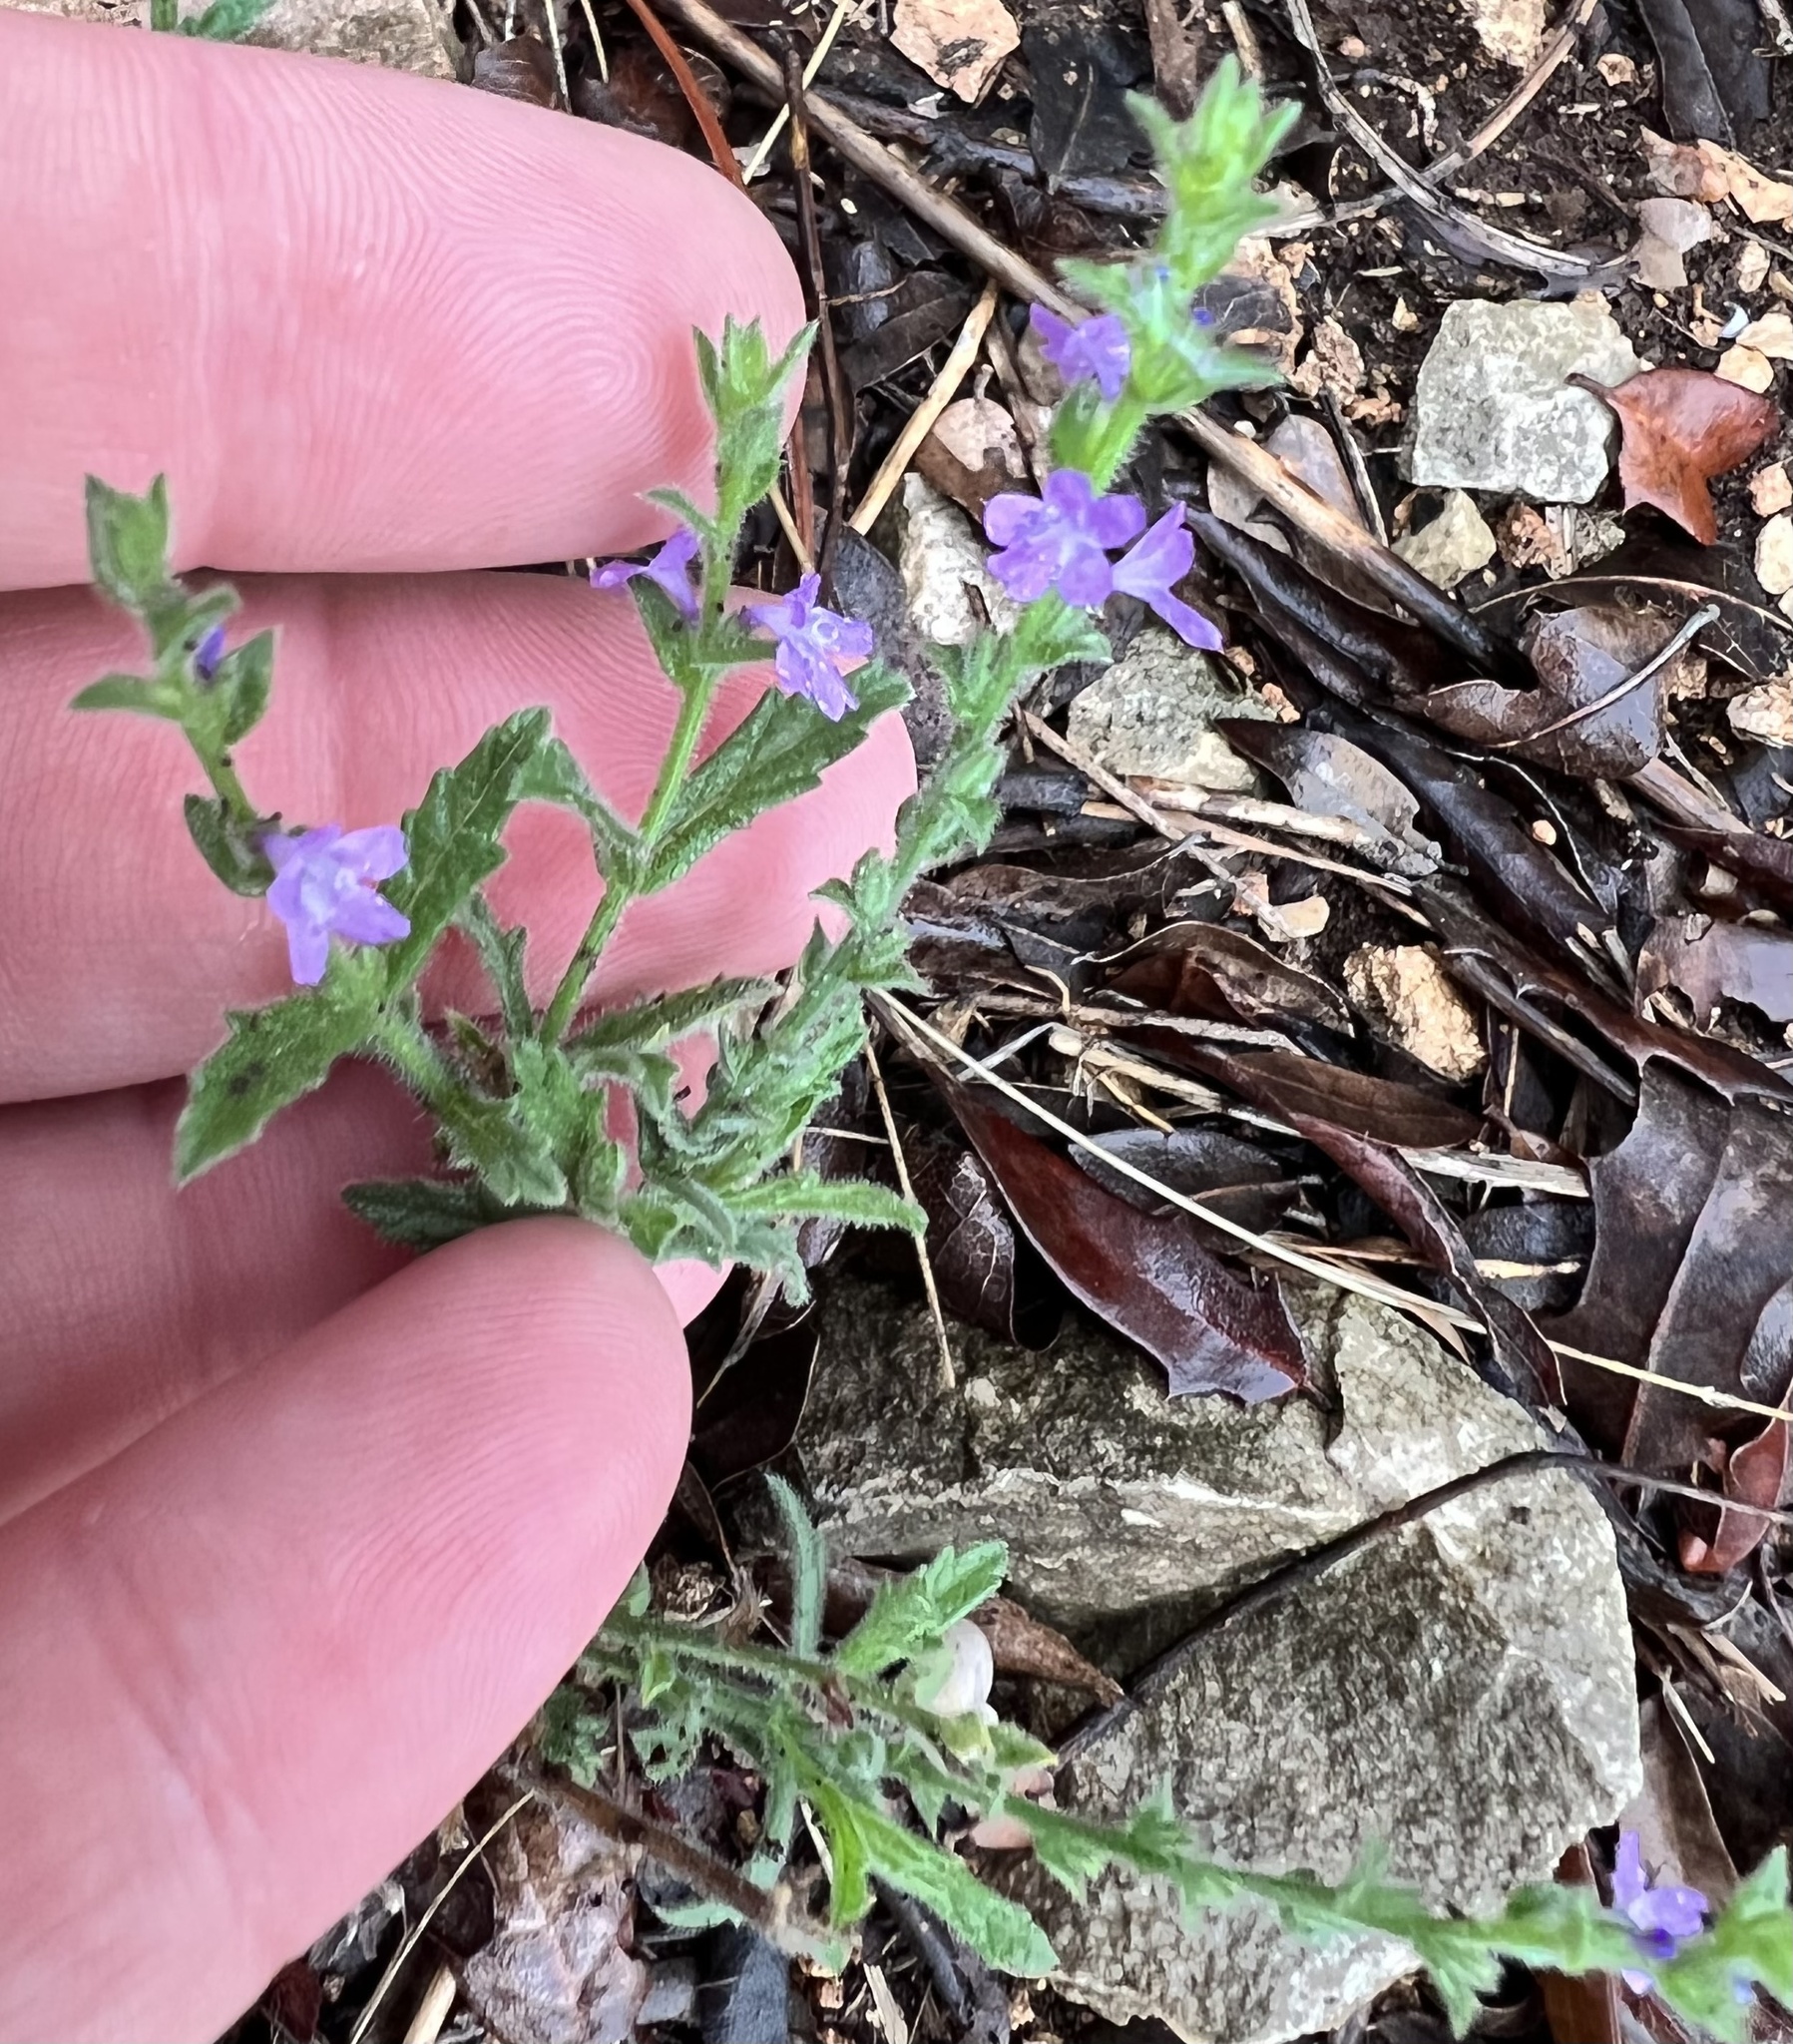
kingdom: Plantae
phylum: Tracheophyta
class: Magnoliopsida
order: Lamiales
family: Verbenaceae
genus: Verbena
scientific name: Verbena canescens
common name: Gray vervain
